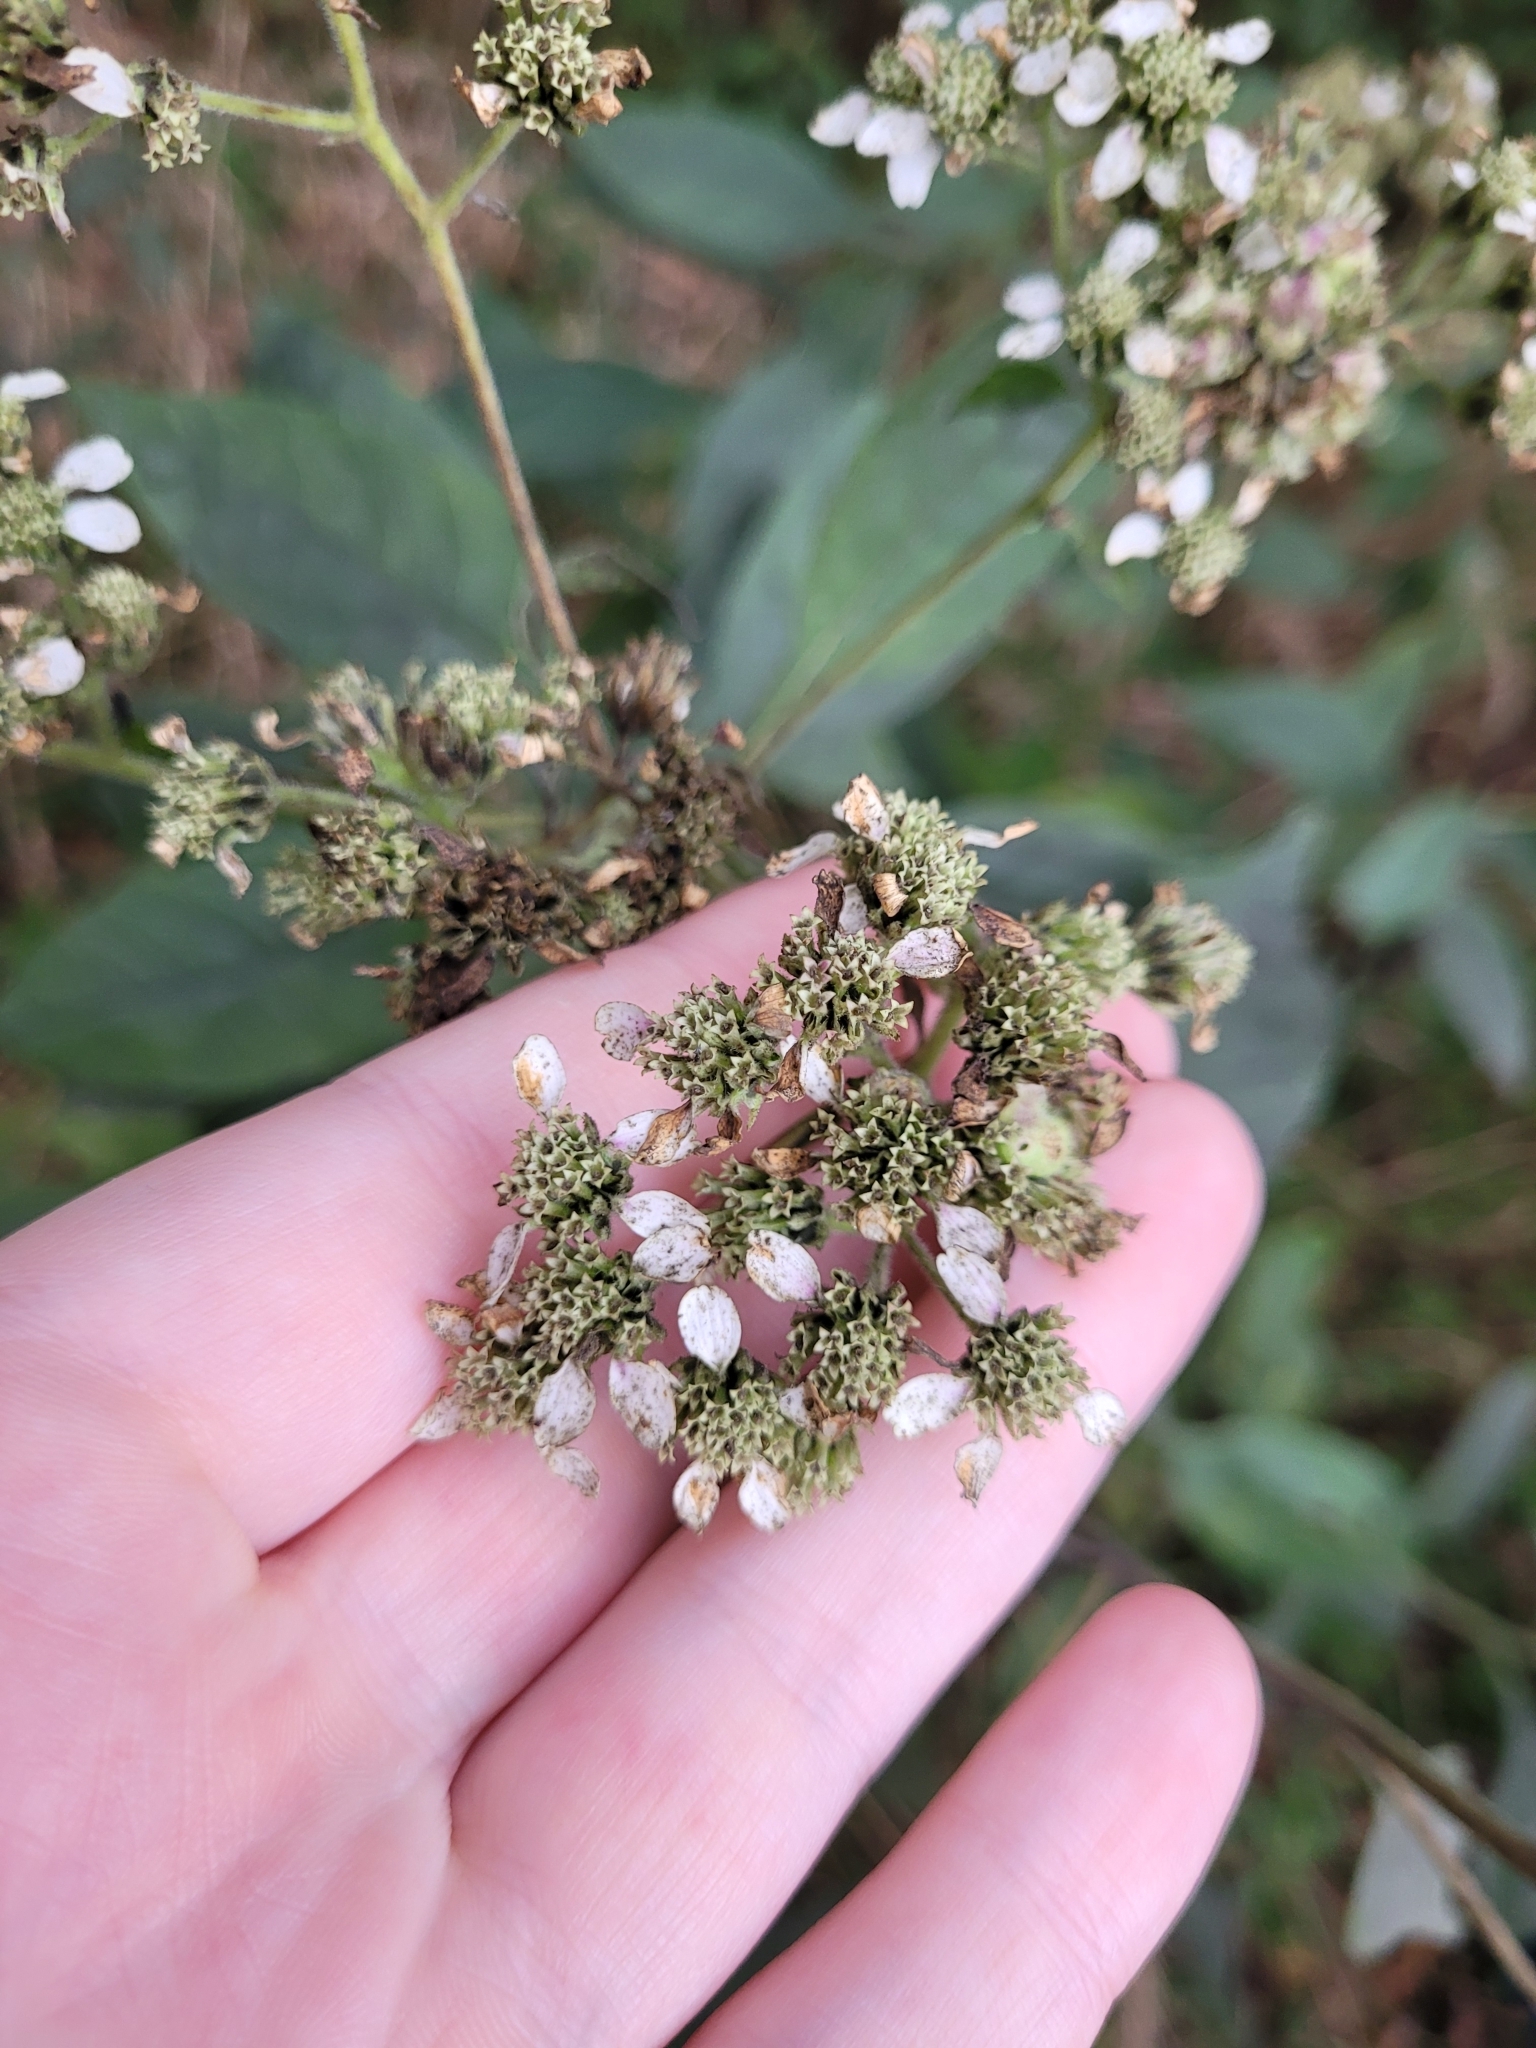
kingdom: Plantae
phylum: Tracheophyta
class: Magnoliopsida
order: Asterales
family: Asteraceae
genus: Verbesina
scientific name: Verbesina virginica
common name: Frostweed
